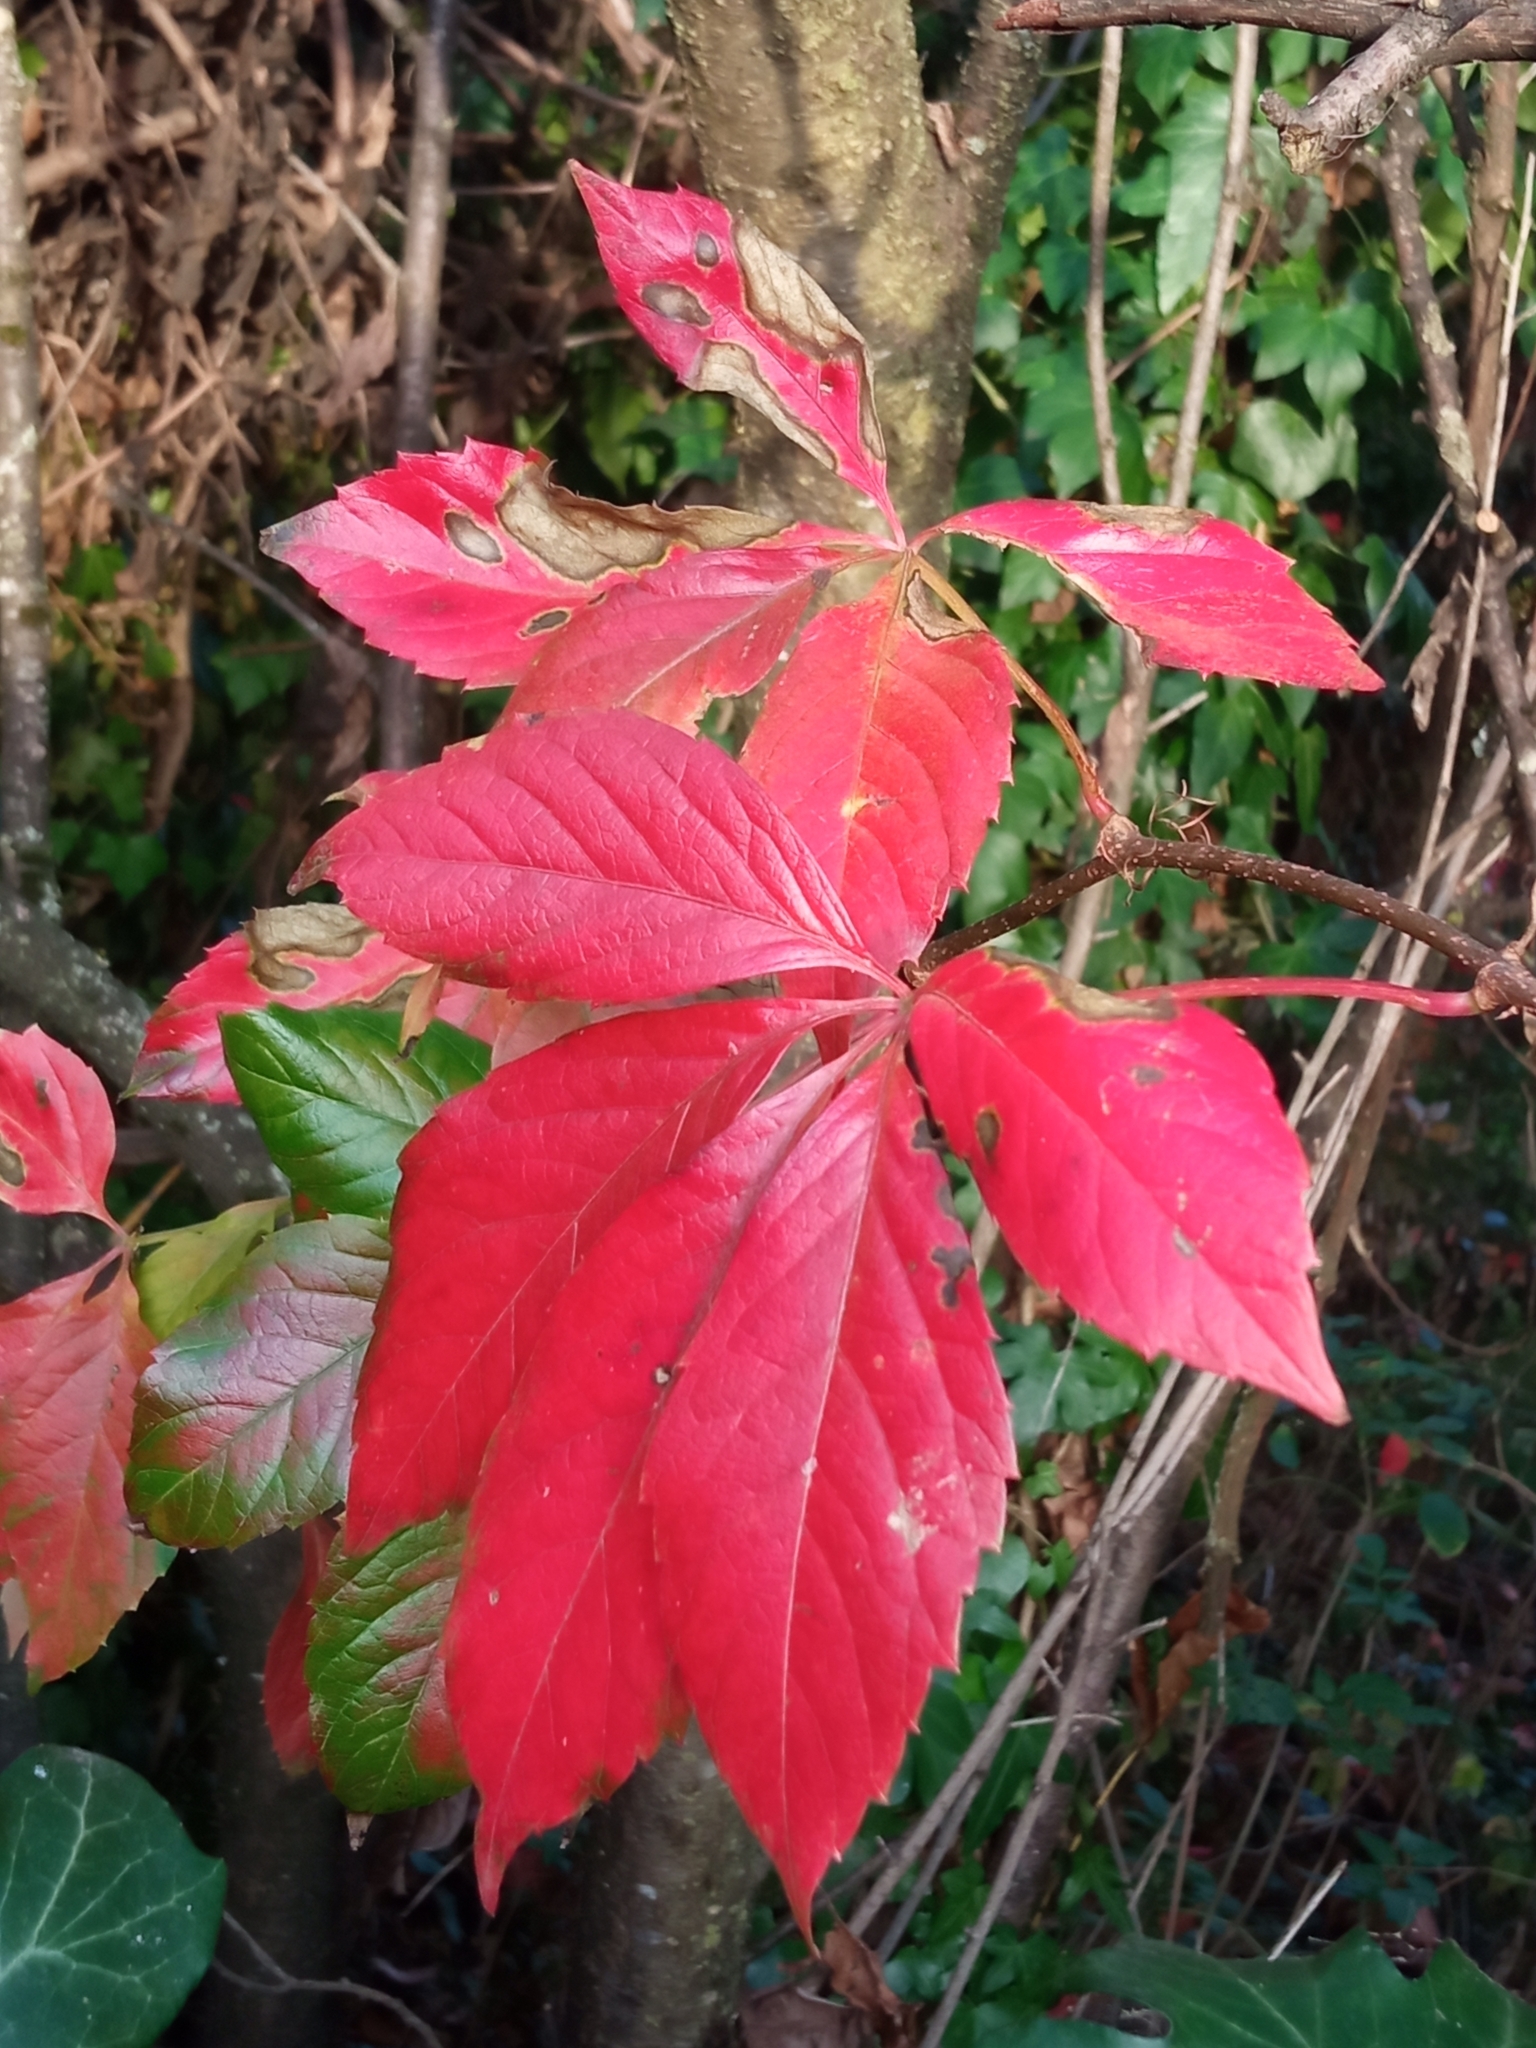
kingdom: Plantae
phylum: Tracheophyta
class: Magnoliopsida
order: Vitales
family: Vitaceae
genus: Parthenocissus
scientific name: Parthenocissus quinquefolia
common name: Virginia-creeper
